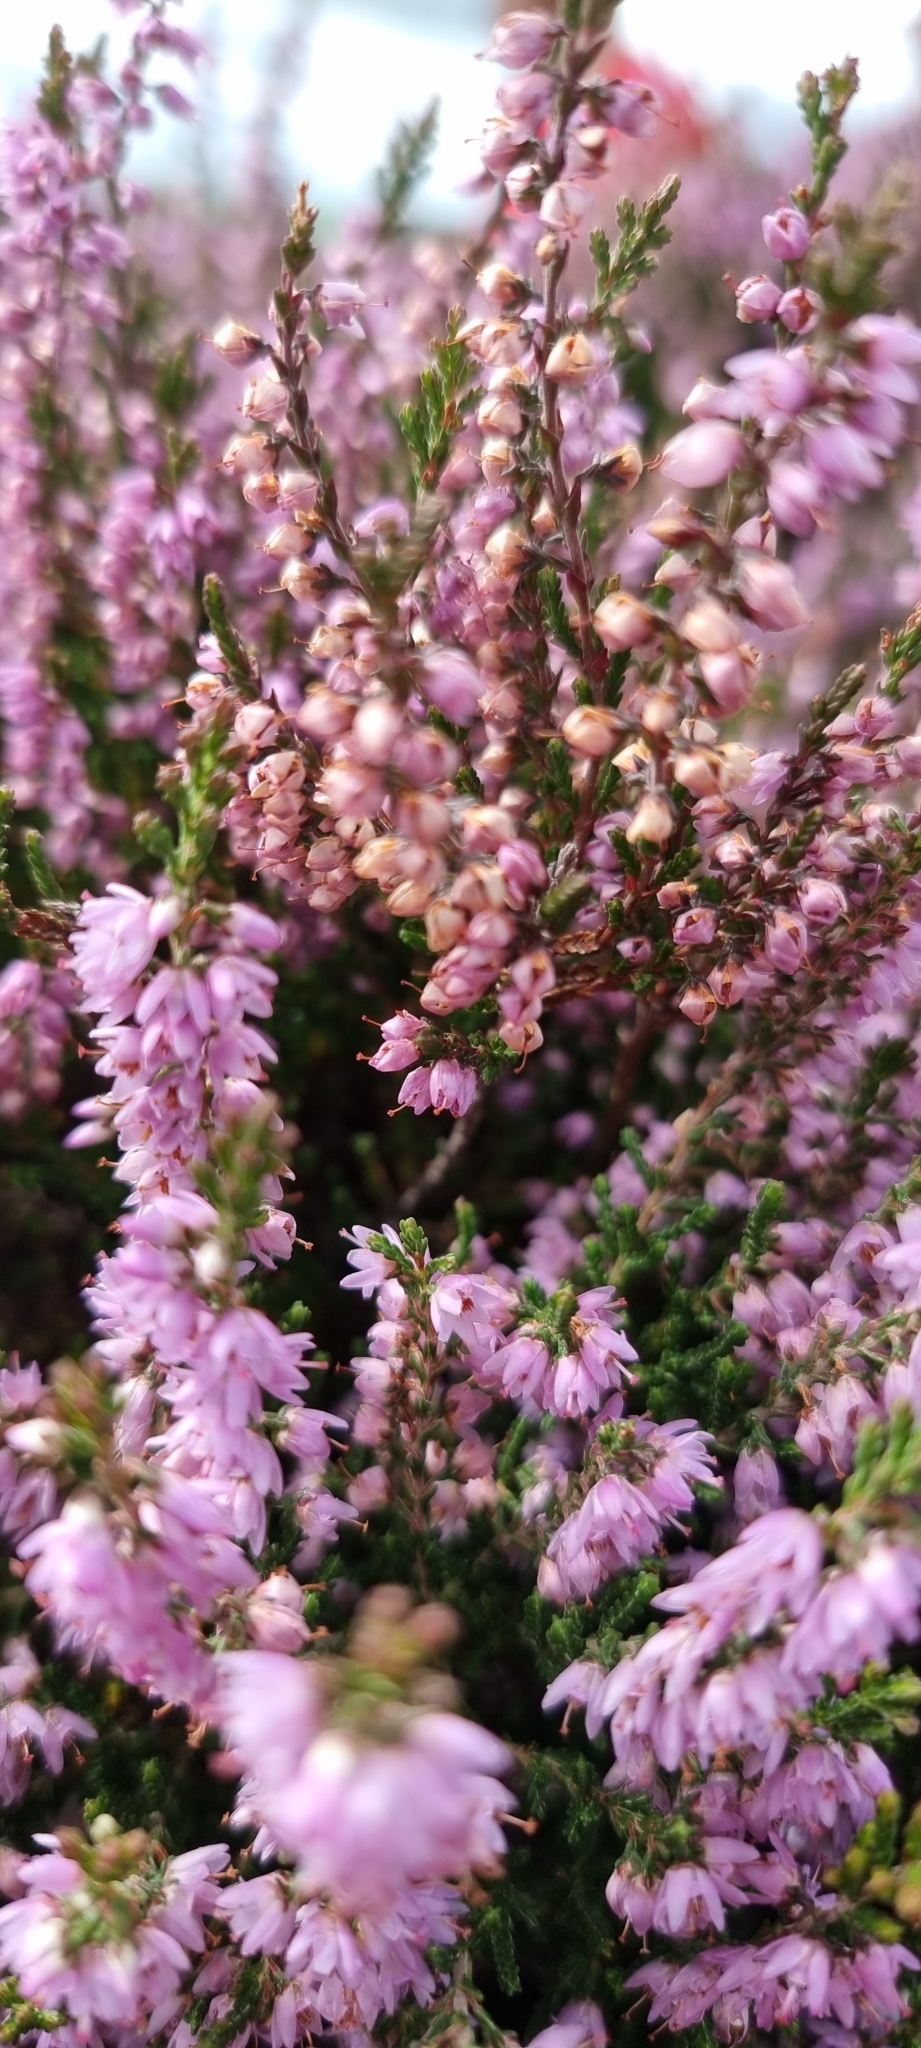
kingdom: Plantae
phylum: Tracheophyta
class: Magnoliopsida
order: Ericales
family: Ericaceae
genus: Calluna
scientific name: Calluna vulgaris
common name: Heather
